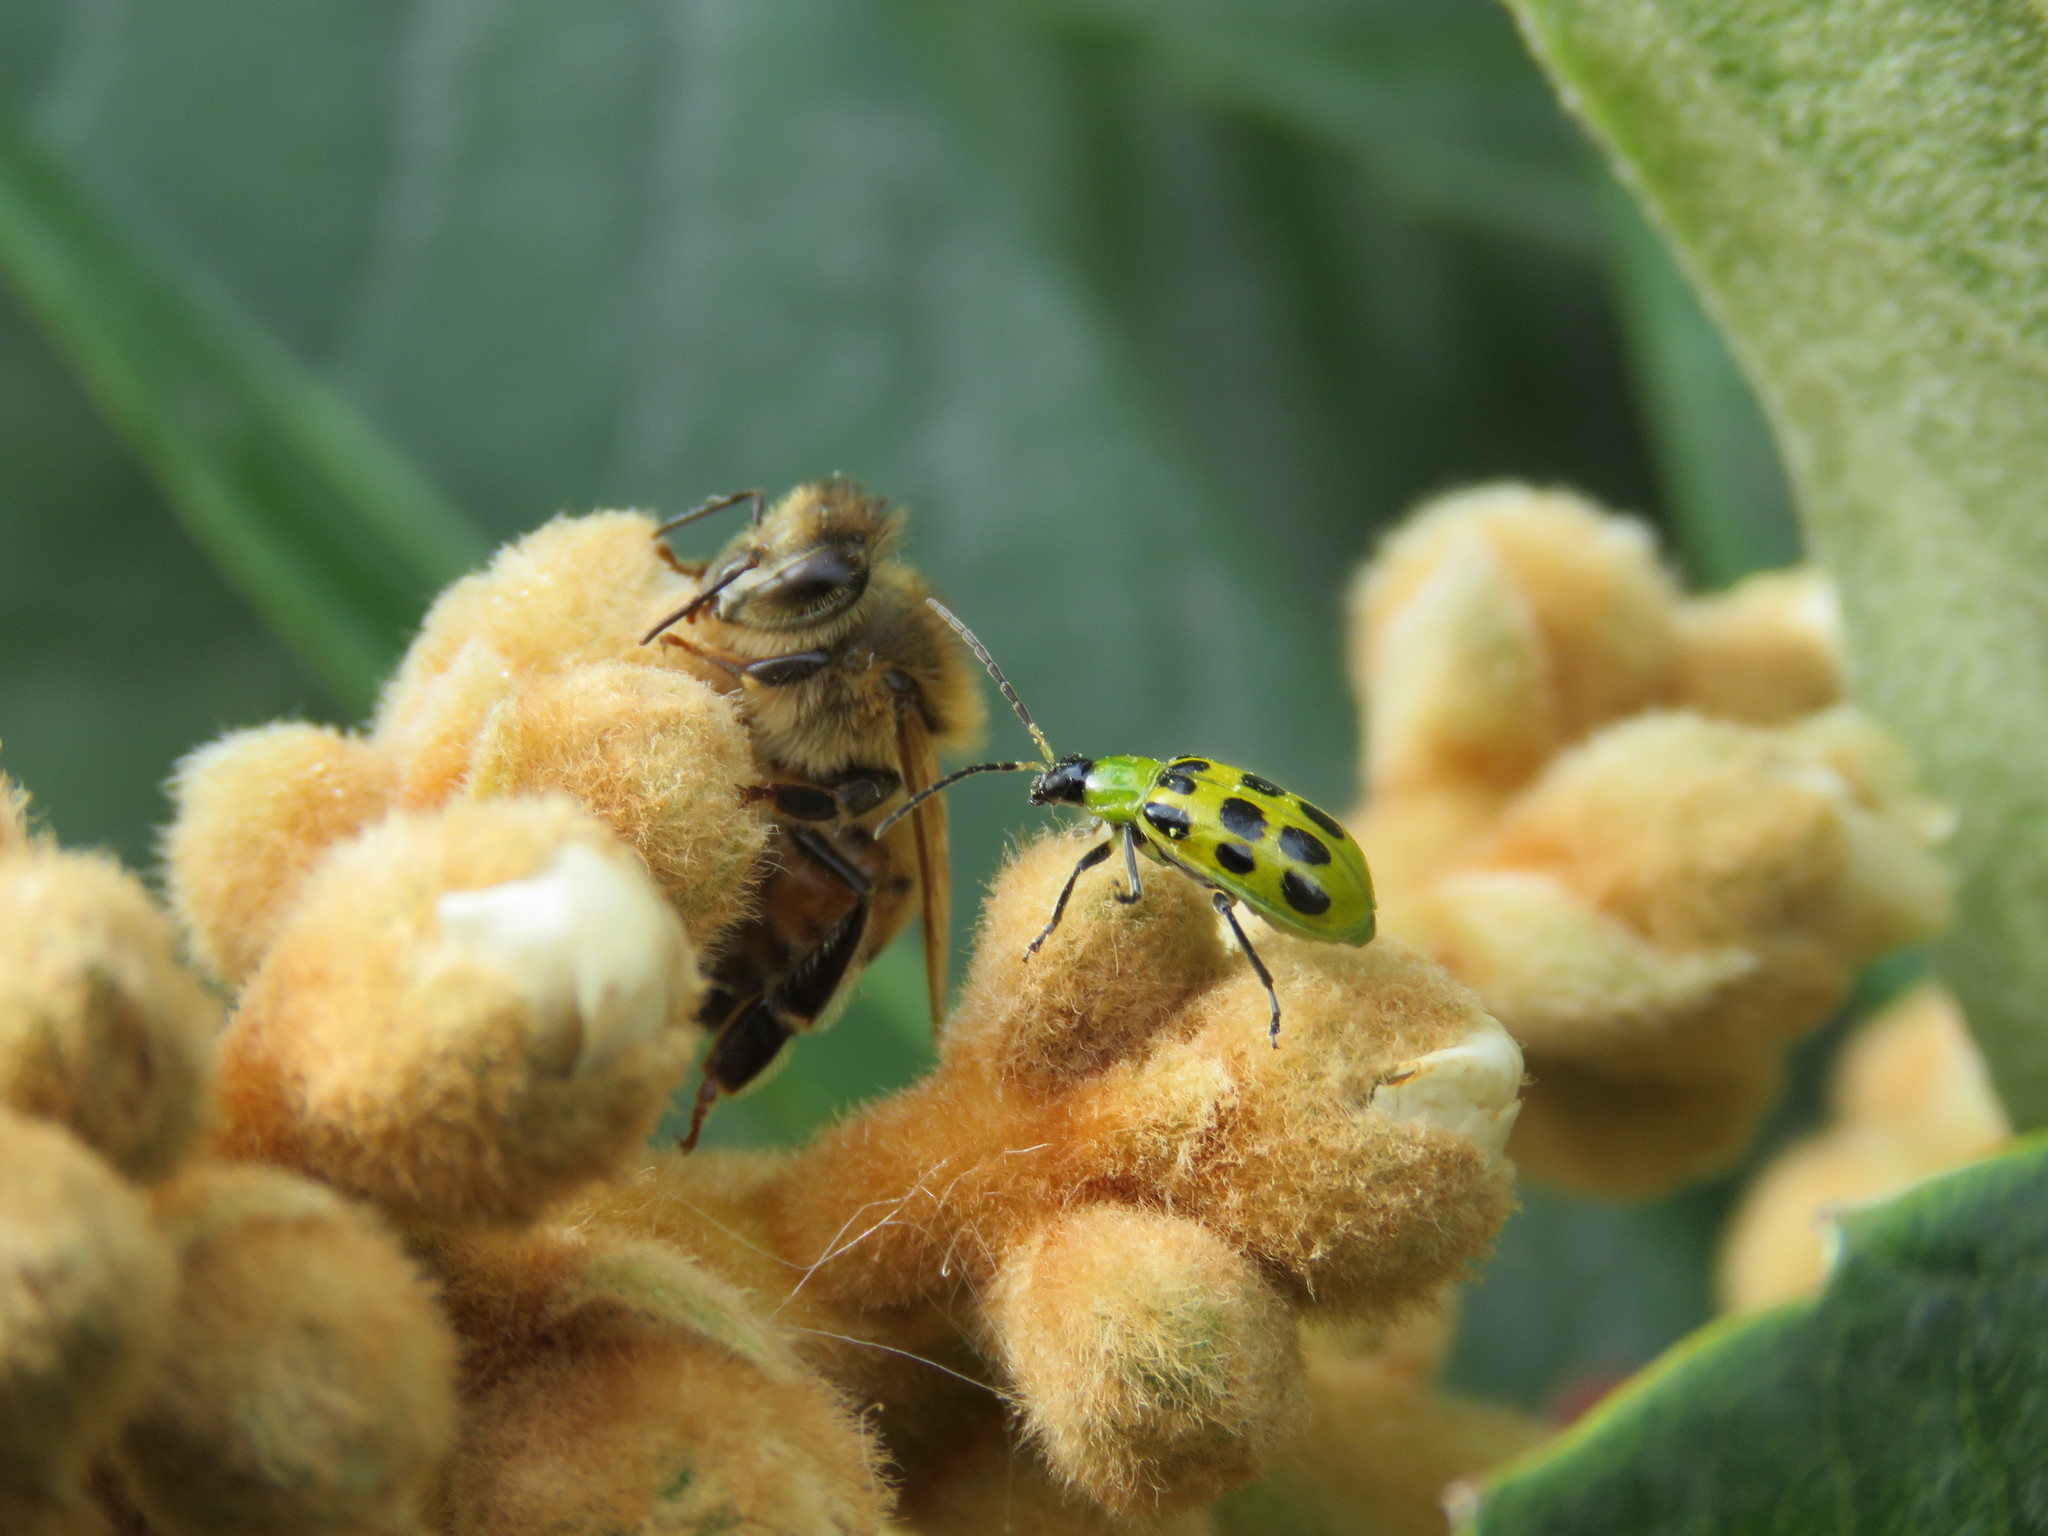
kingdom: Animalia
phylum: Arthropoda
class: Insecta
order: Coleoptera
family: Chrysomelidae
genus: Diabrotica
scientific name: Diabrotica undecimpunctata
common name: Spotted cucumber beetle
